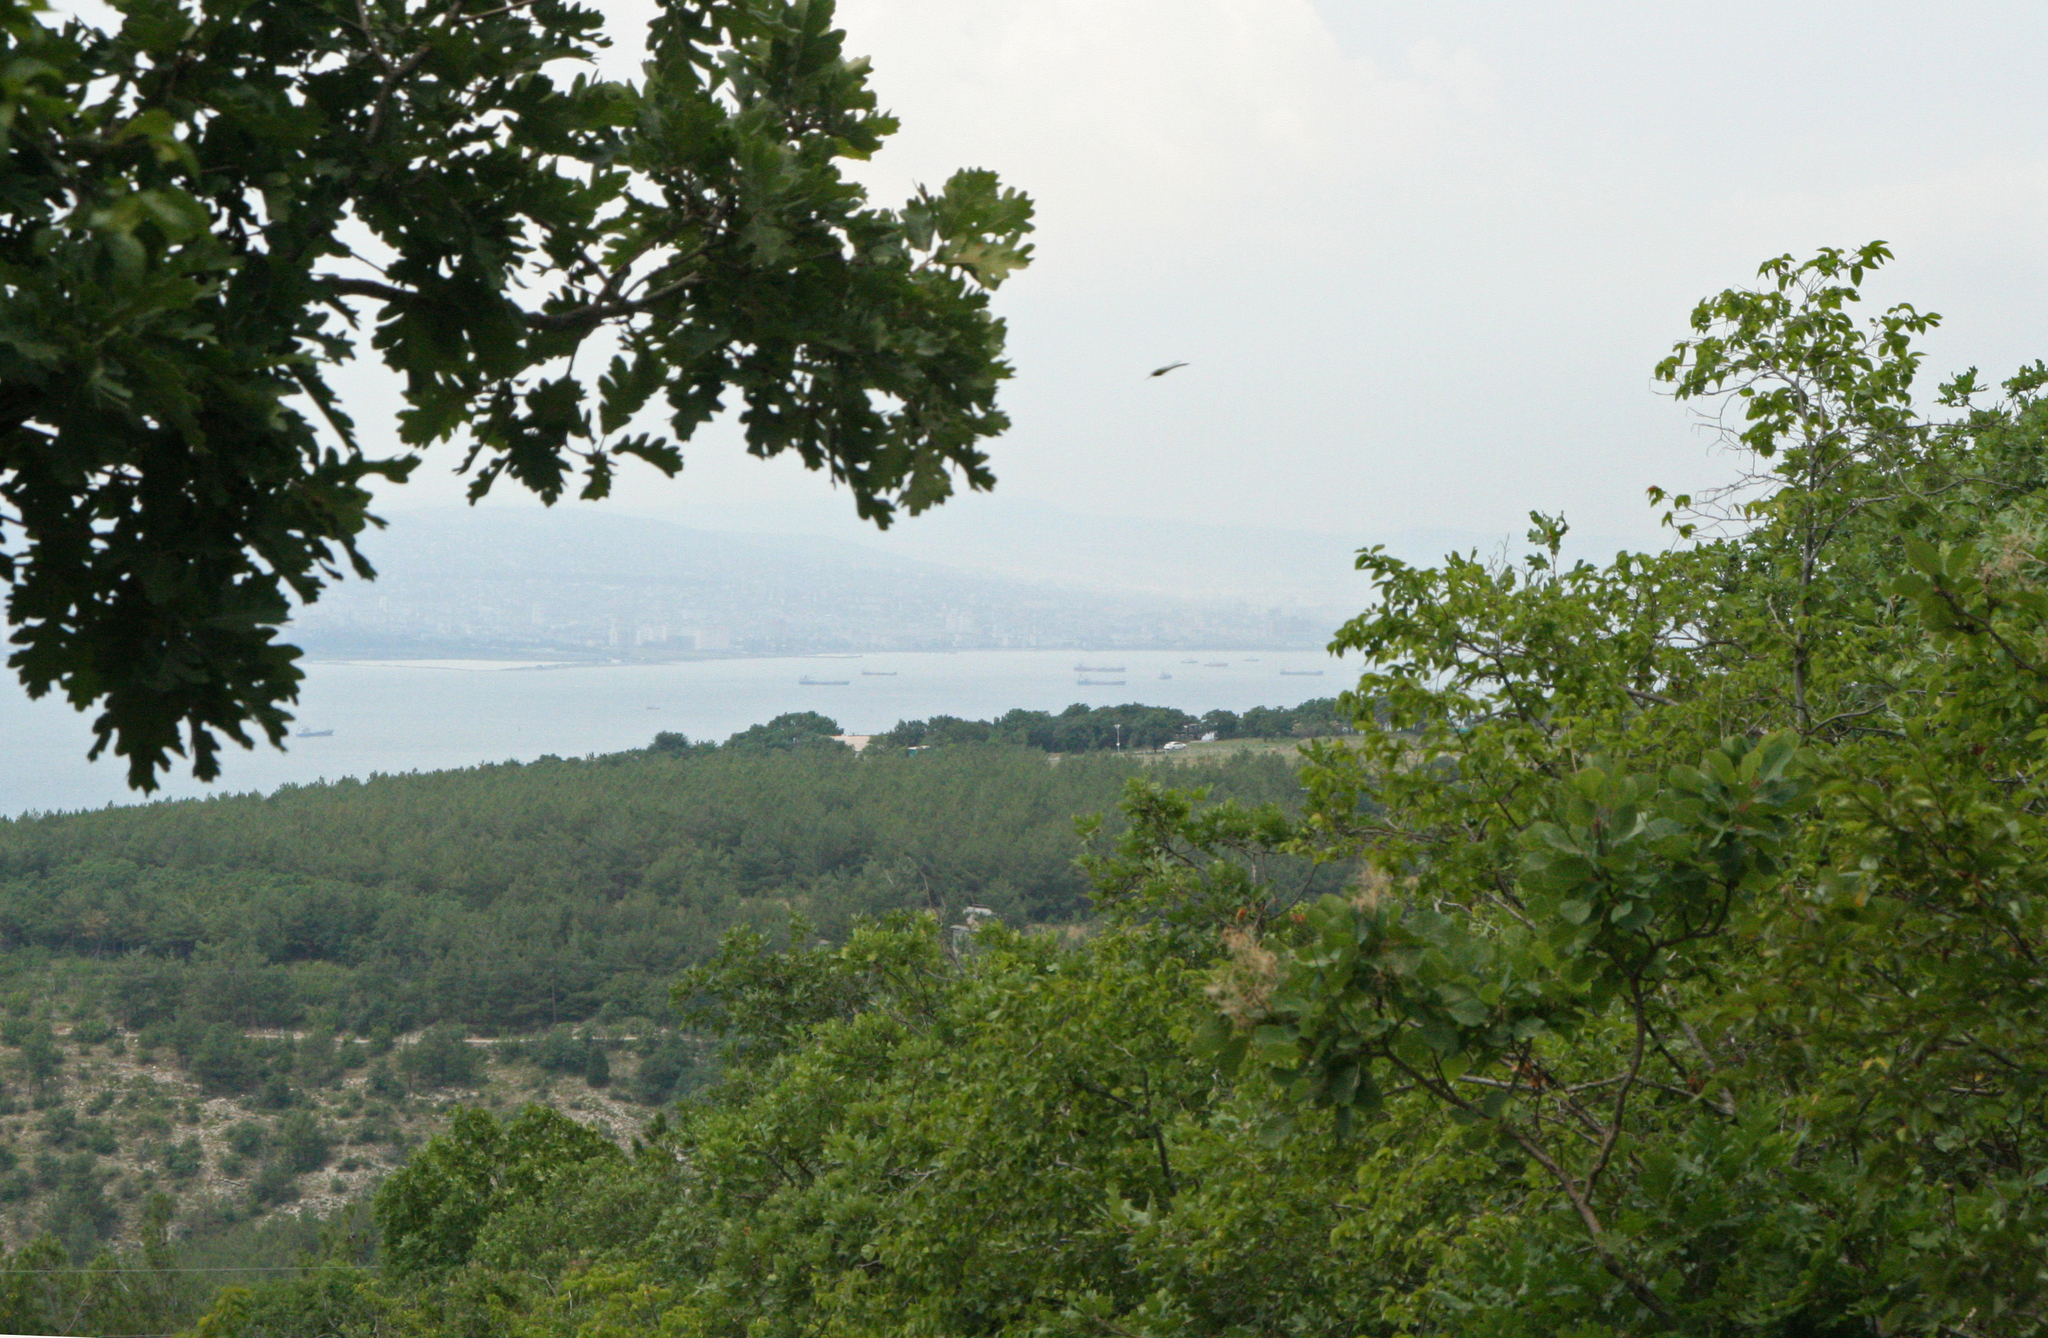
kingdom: Animalia
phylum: Arthropoda
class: Insecta
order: Odonata
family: Aeshnidae
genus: Aeshna
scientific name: Aeshna mixta
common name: Migrant hawker
